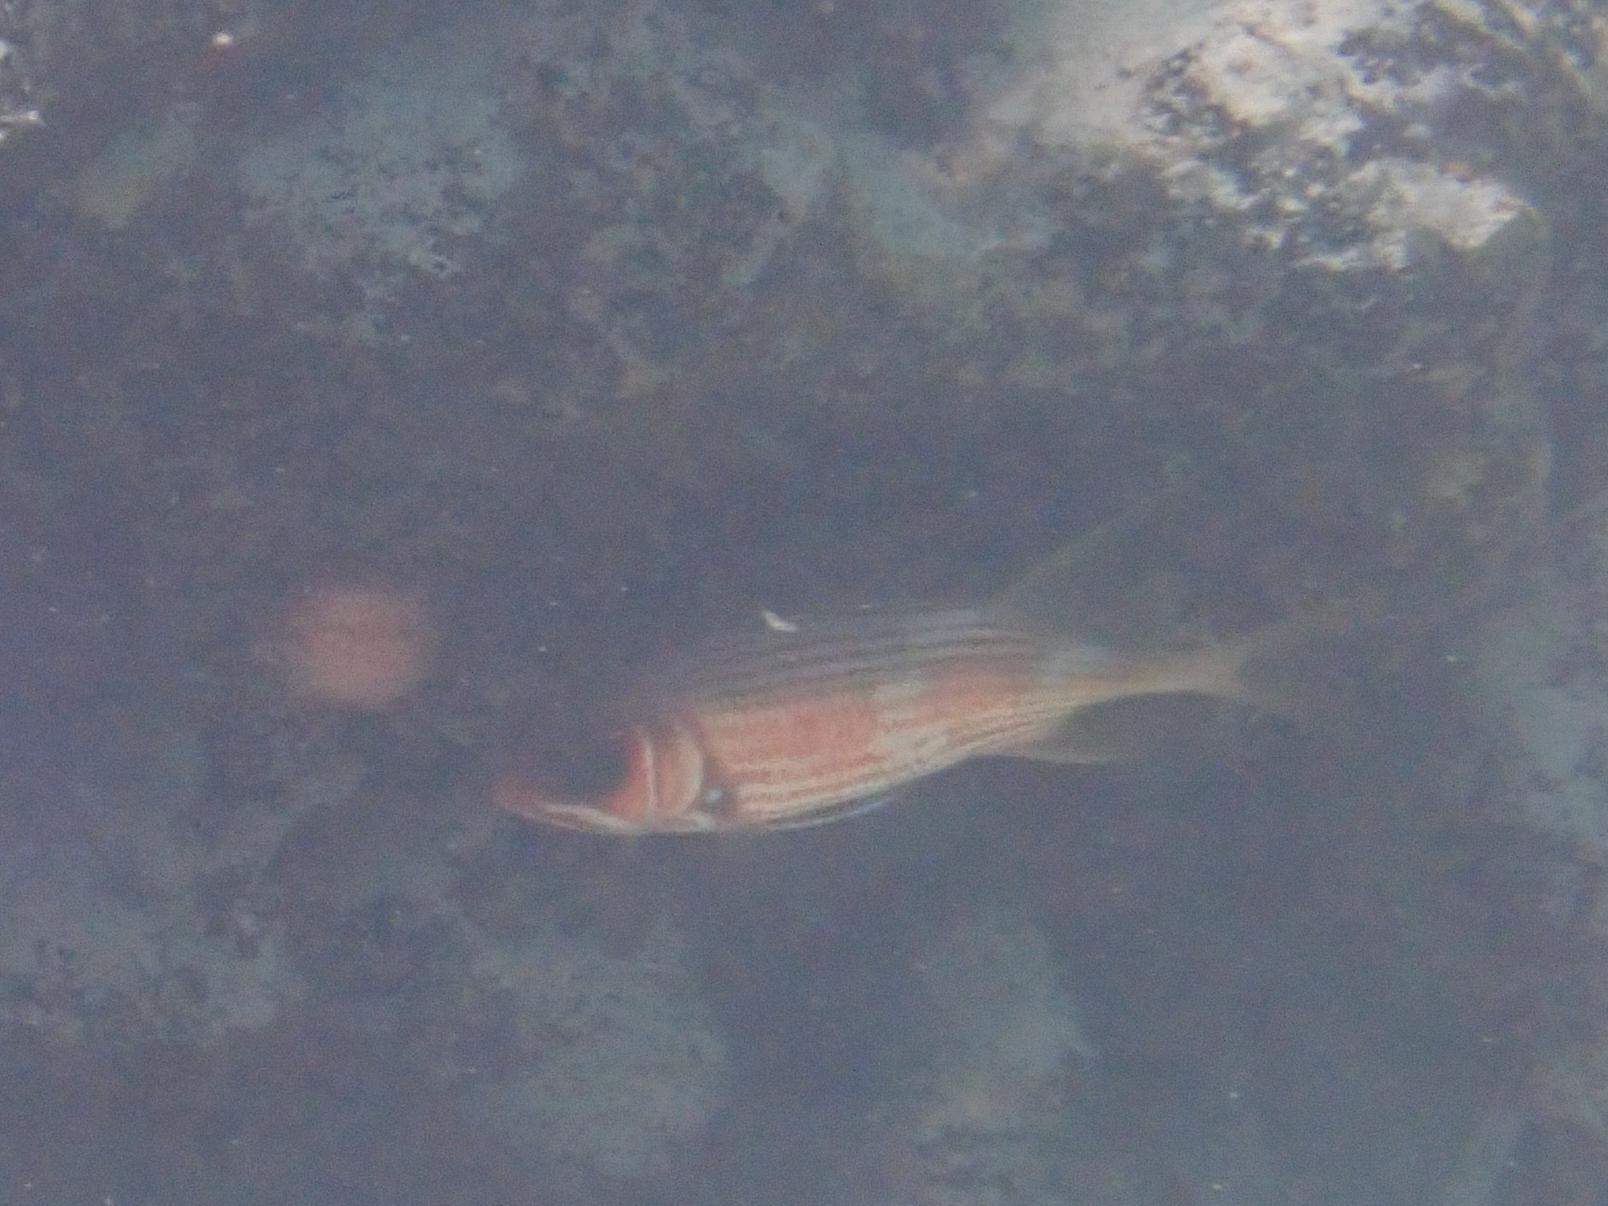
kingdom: Animalia
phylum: Chordata
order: Beryciformes
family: Holocentridae
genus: Holocentrus
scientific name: Holocentrus rufus
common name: Longspine squirrelfish
